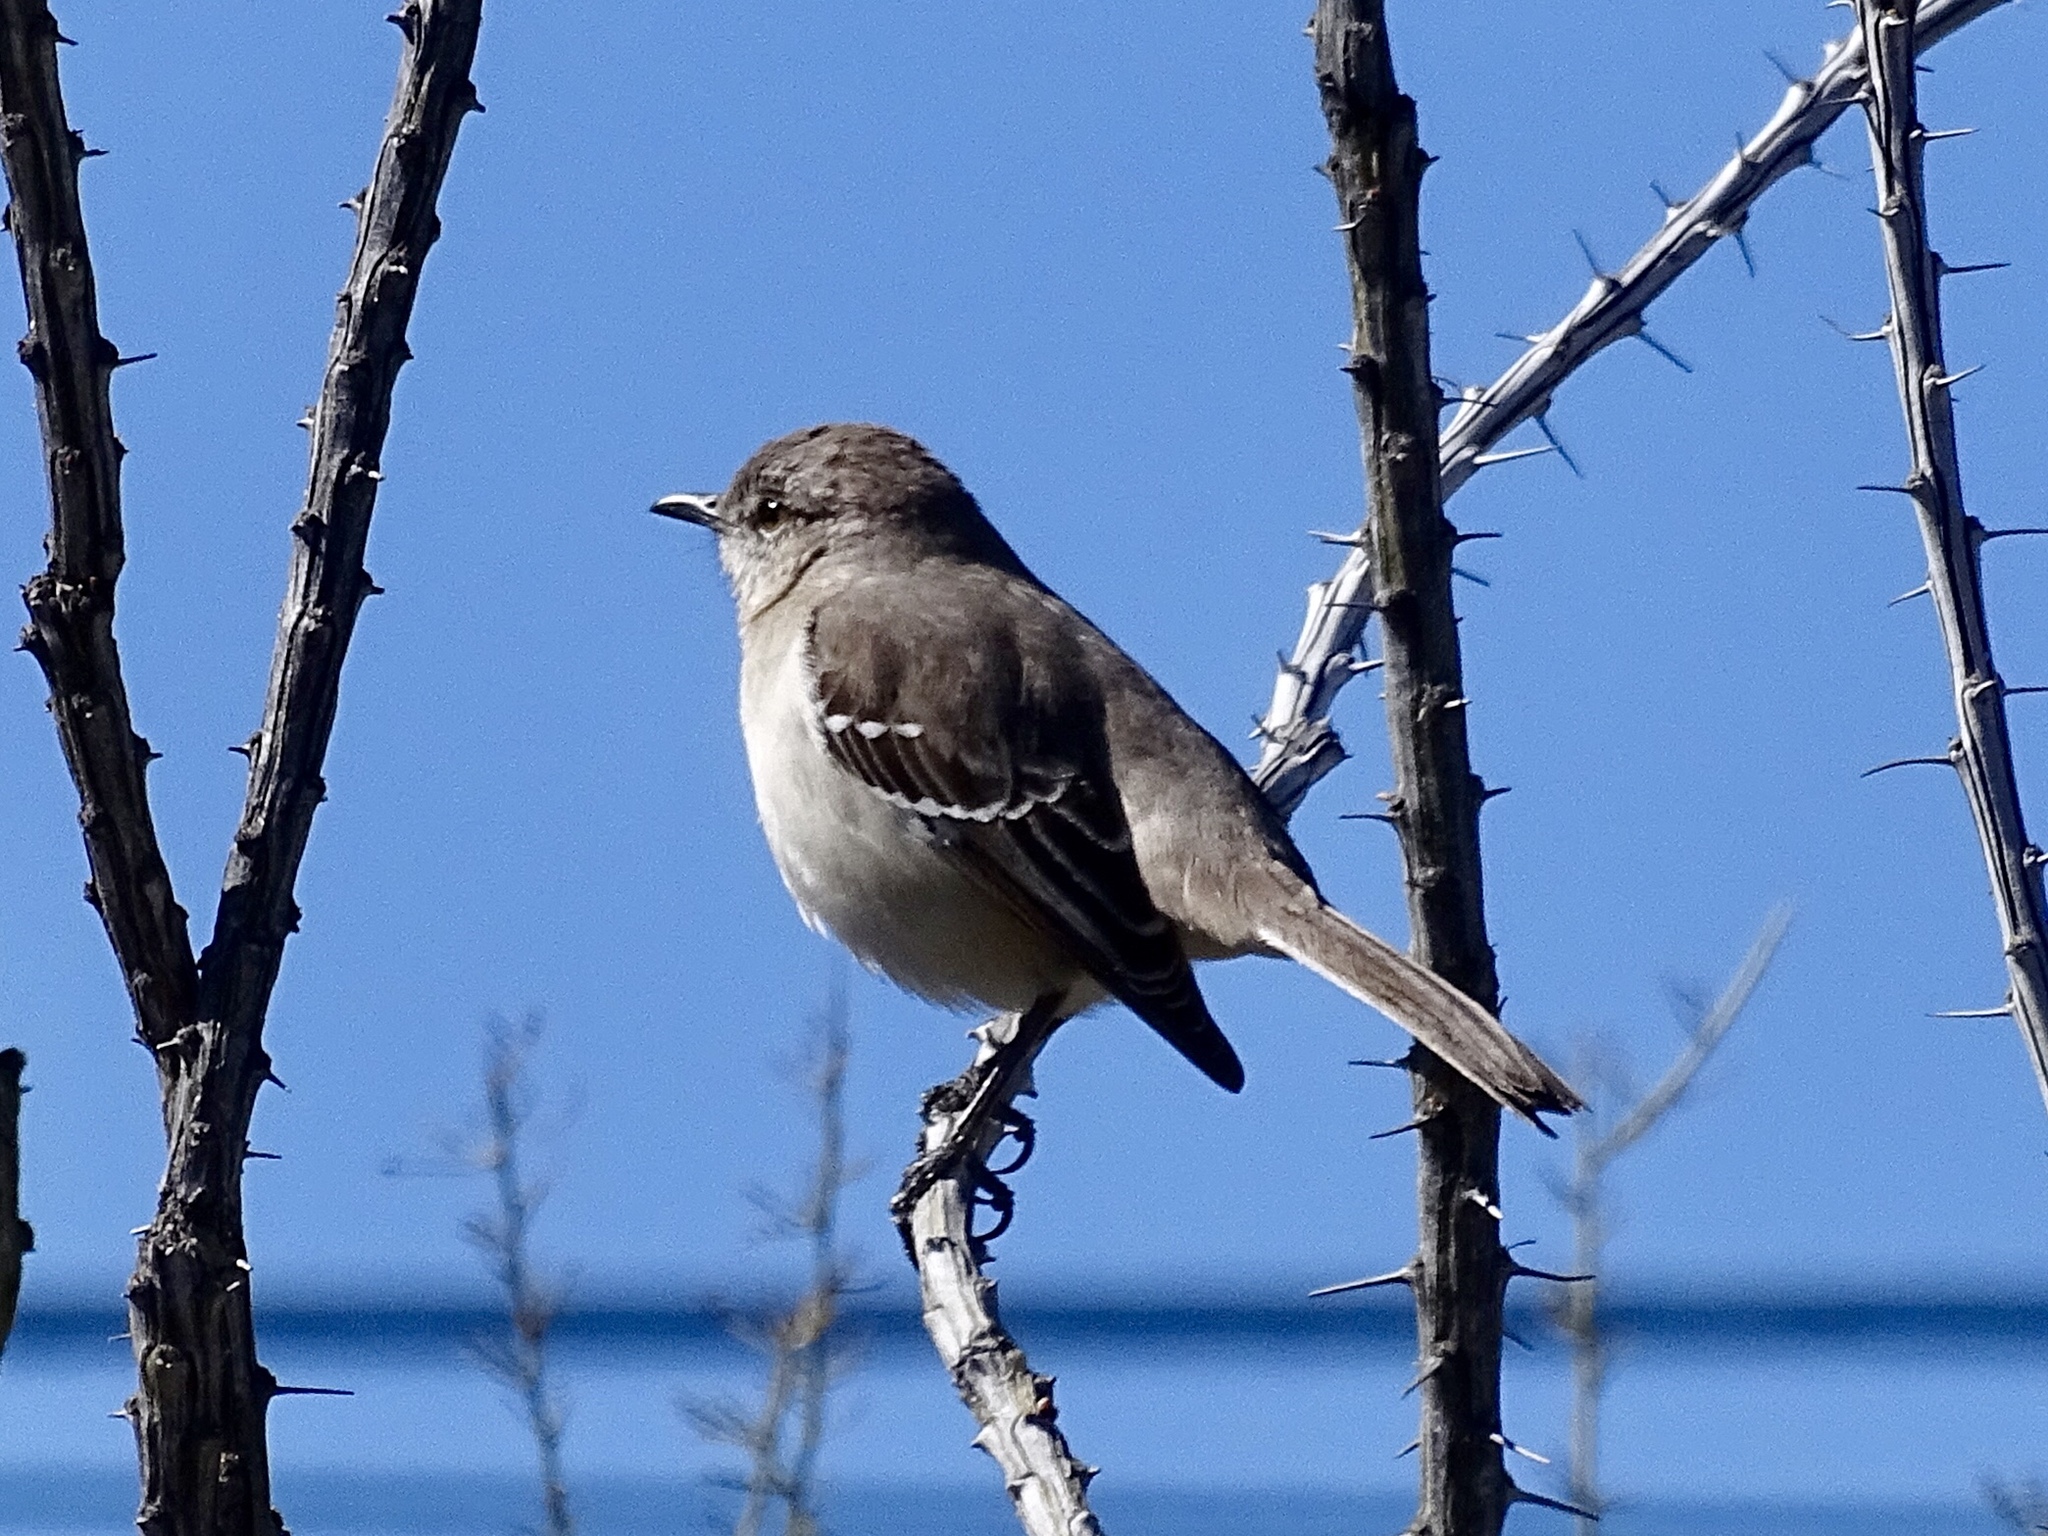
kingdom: Animalia
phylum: Chordata
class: Aves
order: Passeriformes
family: Mimidae
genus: Mimus
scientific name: Mimus polyglottos
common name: Northern mockingbird
